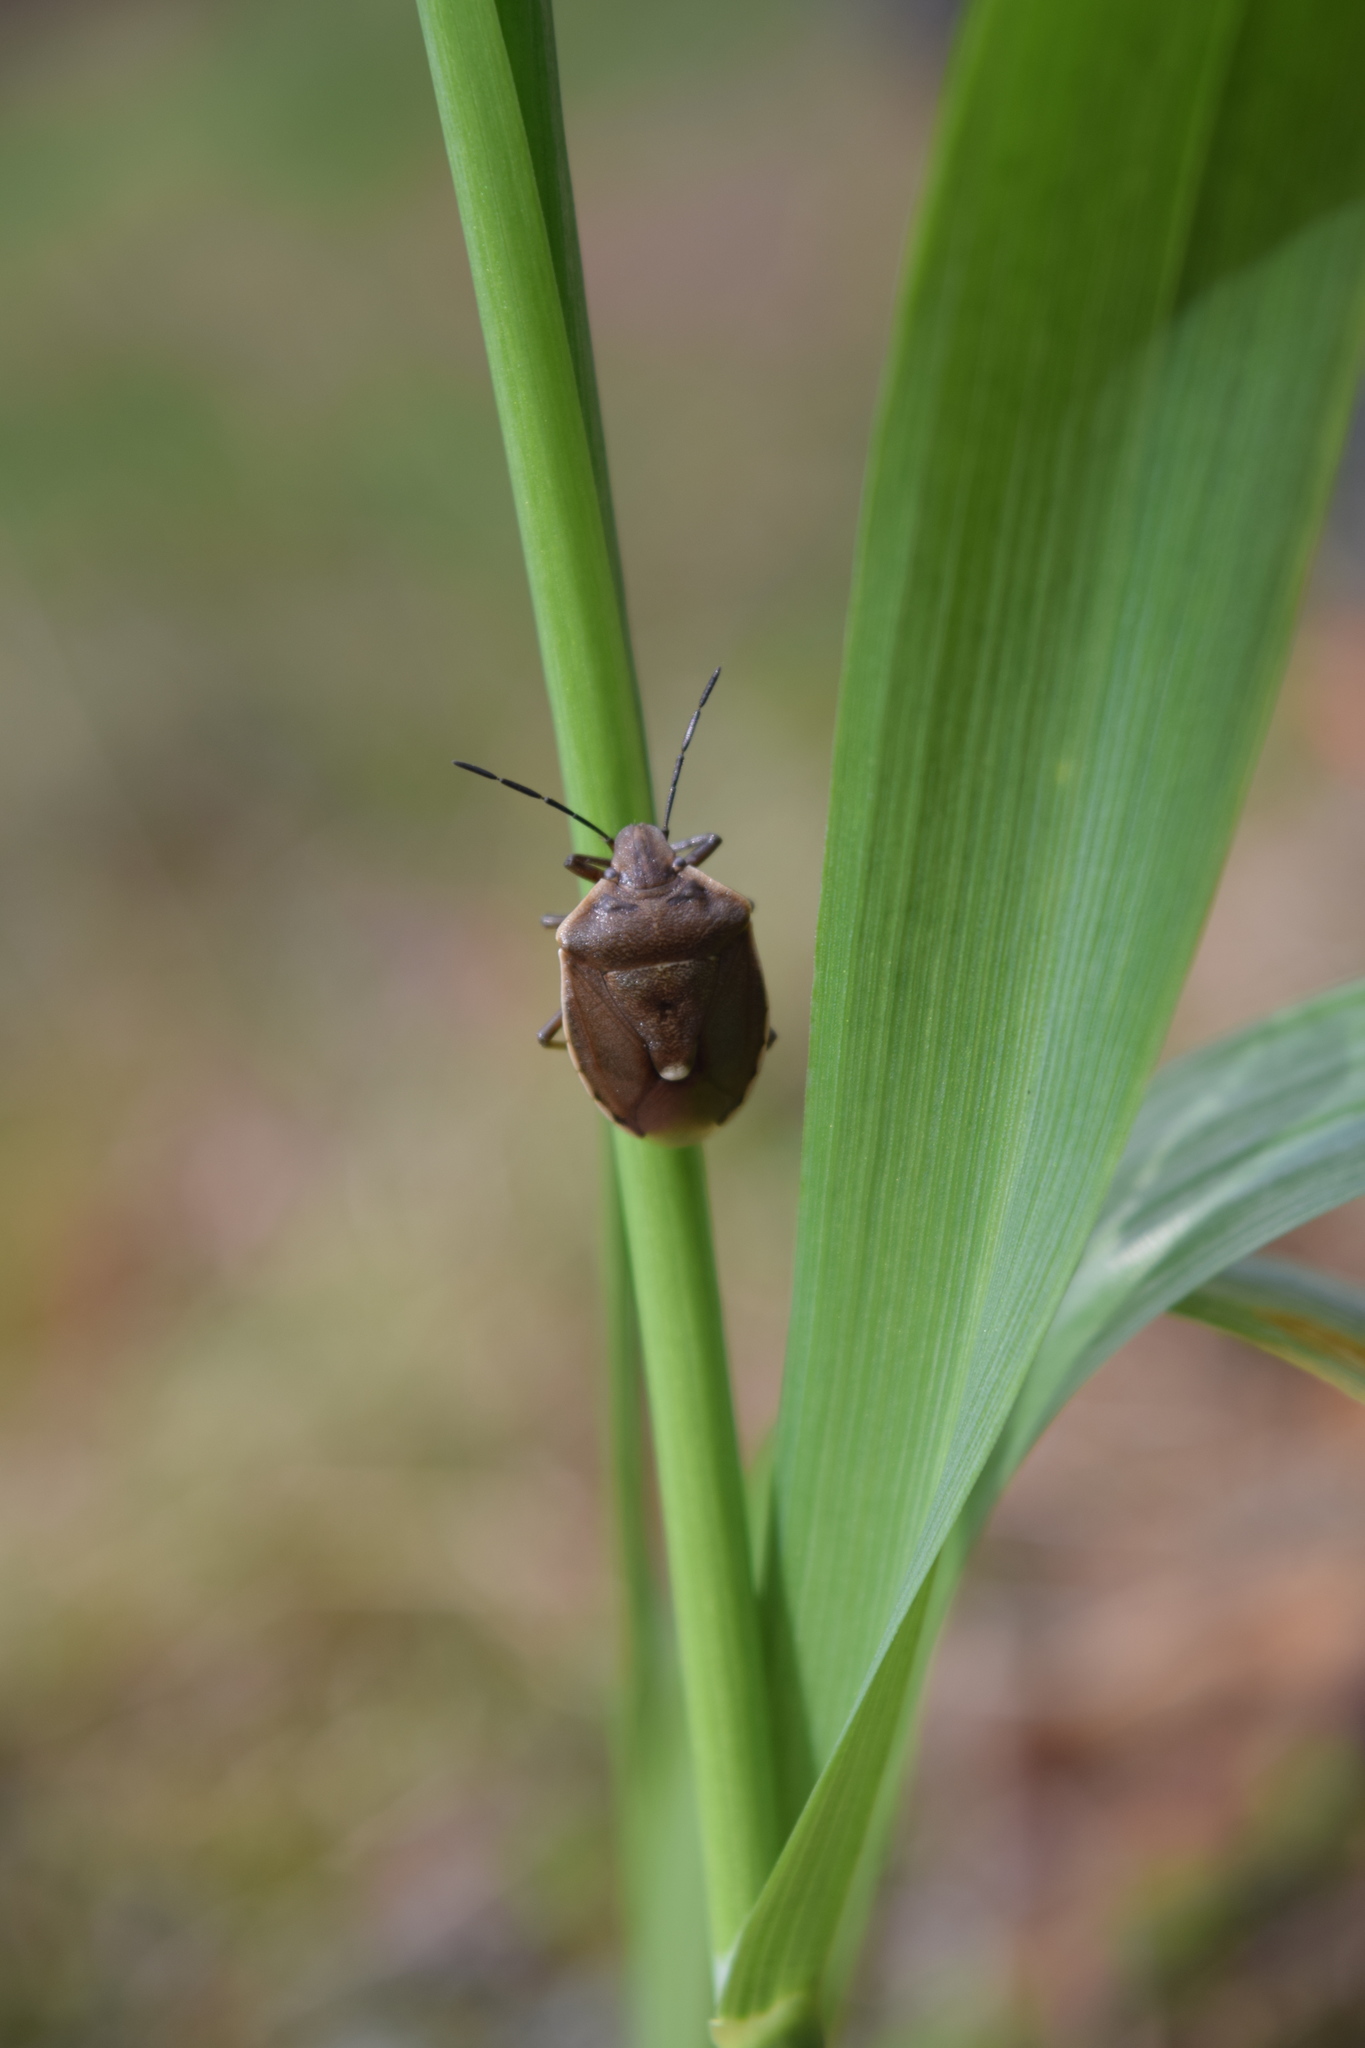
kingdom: Animalia
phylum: Arthropoda
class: Insecta
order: Hemiptera
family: Pentatomidae
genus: Chlorochroa
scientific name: Chlorochroa pinicola
